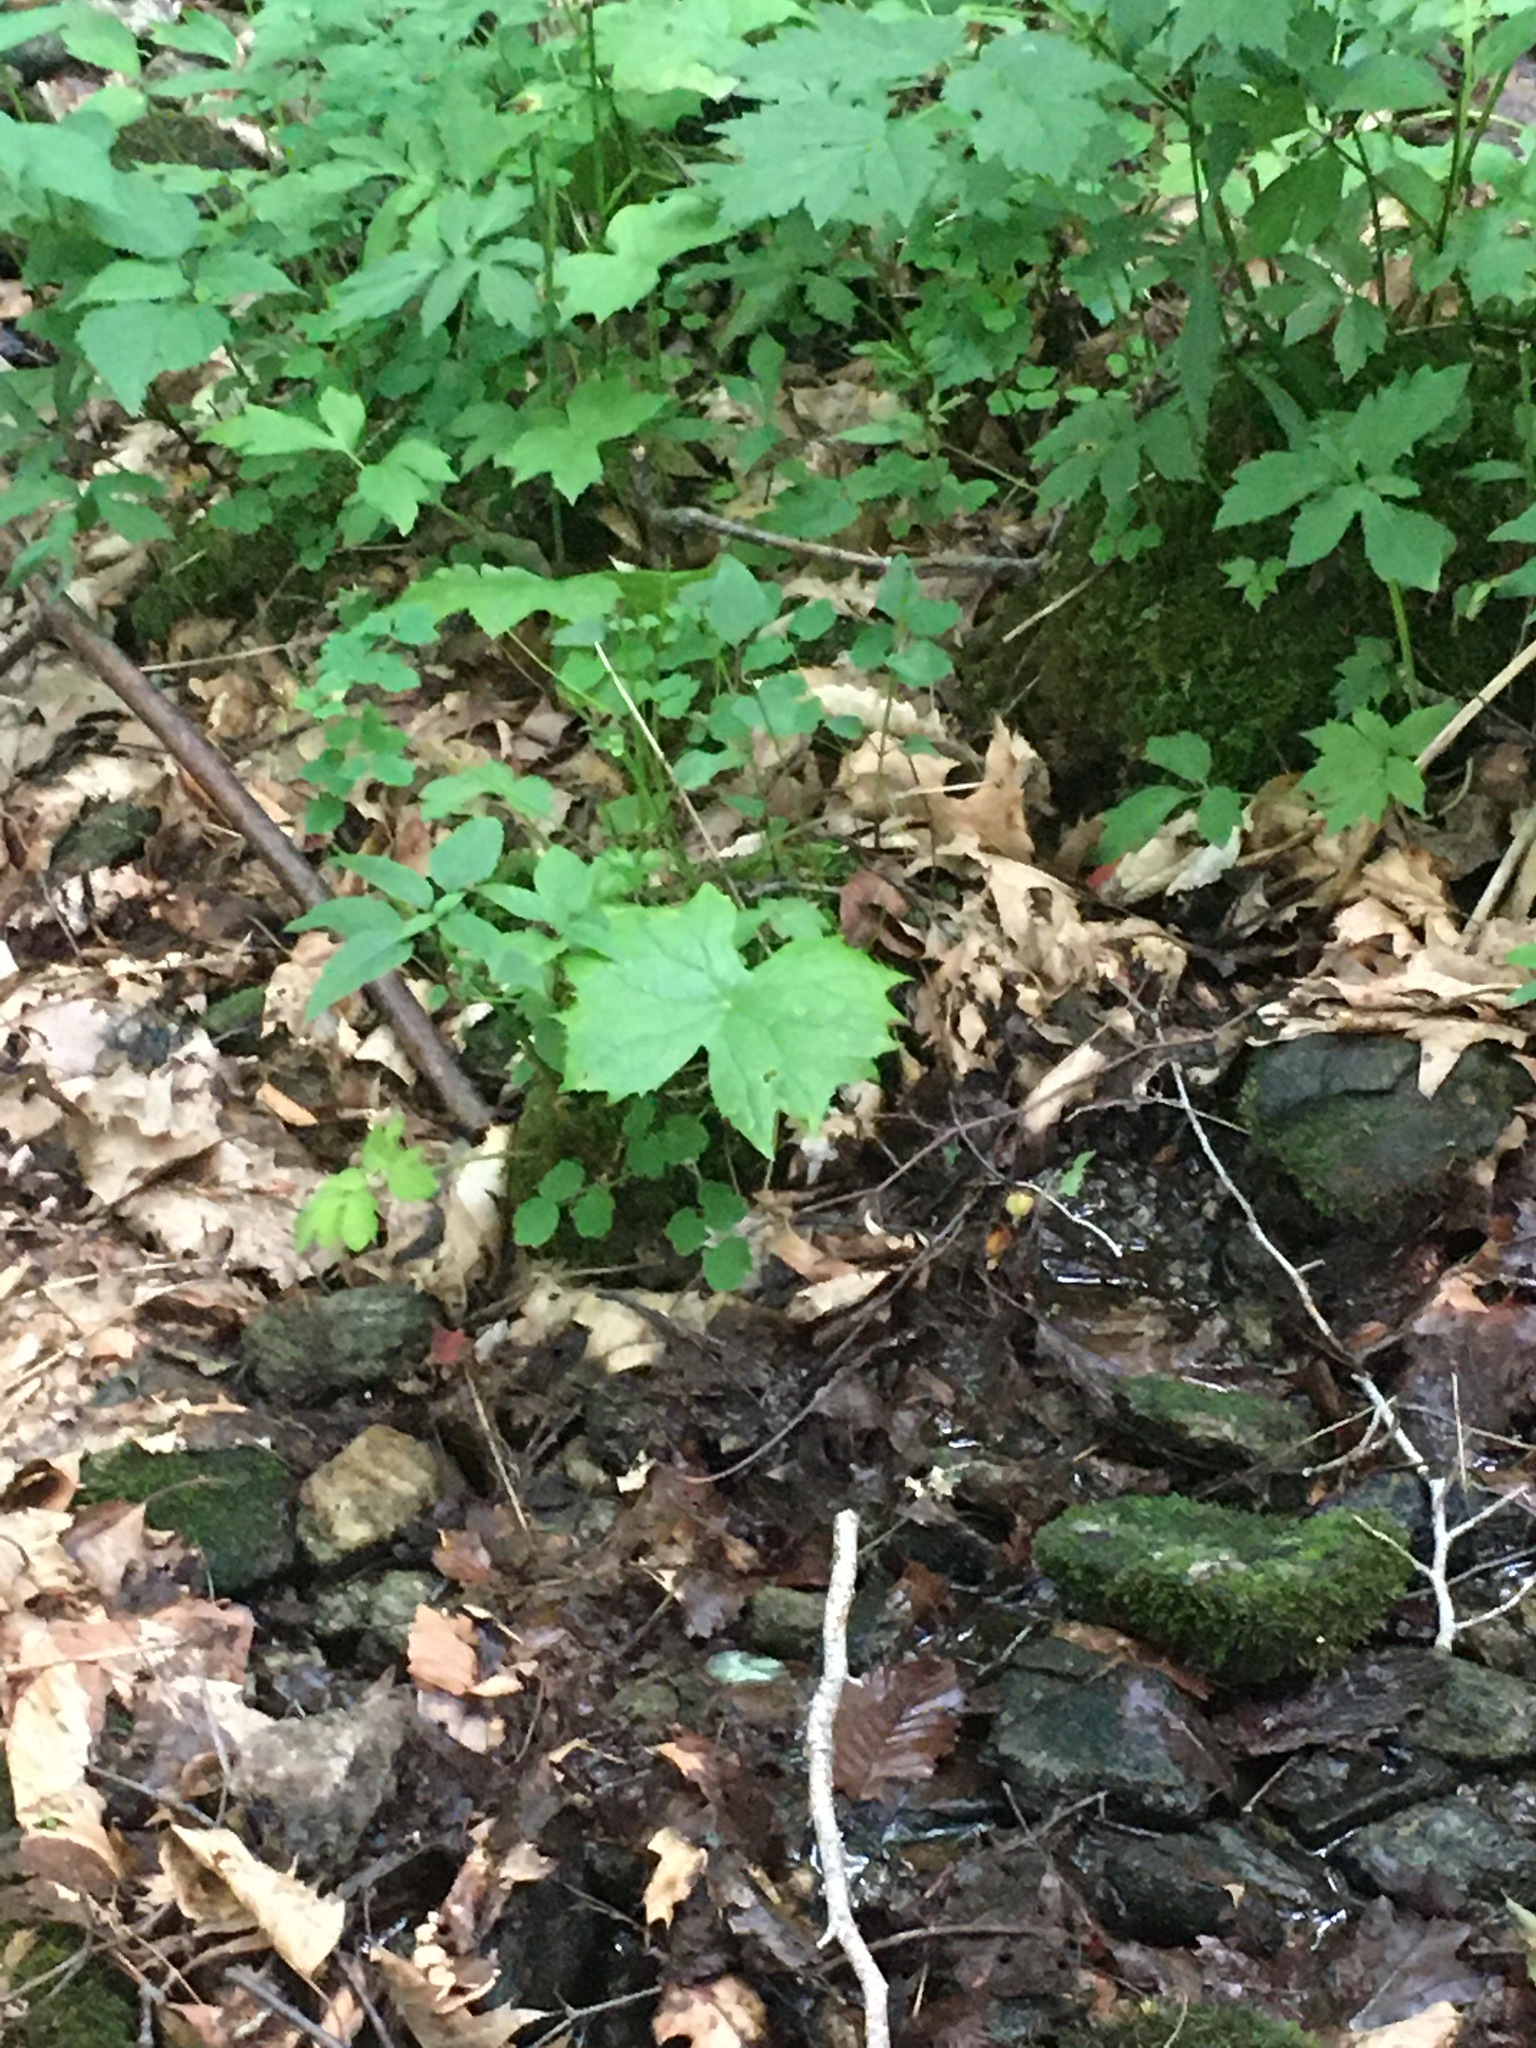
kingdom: Plantae
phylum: Tracheophyta
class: Magnoliopsida
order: Ranunculales
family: Berberidaceae
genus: Diphylleia
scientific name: Diphylleia cymosa
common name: Umbrella-leaf
